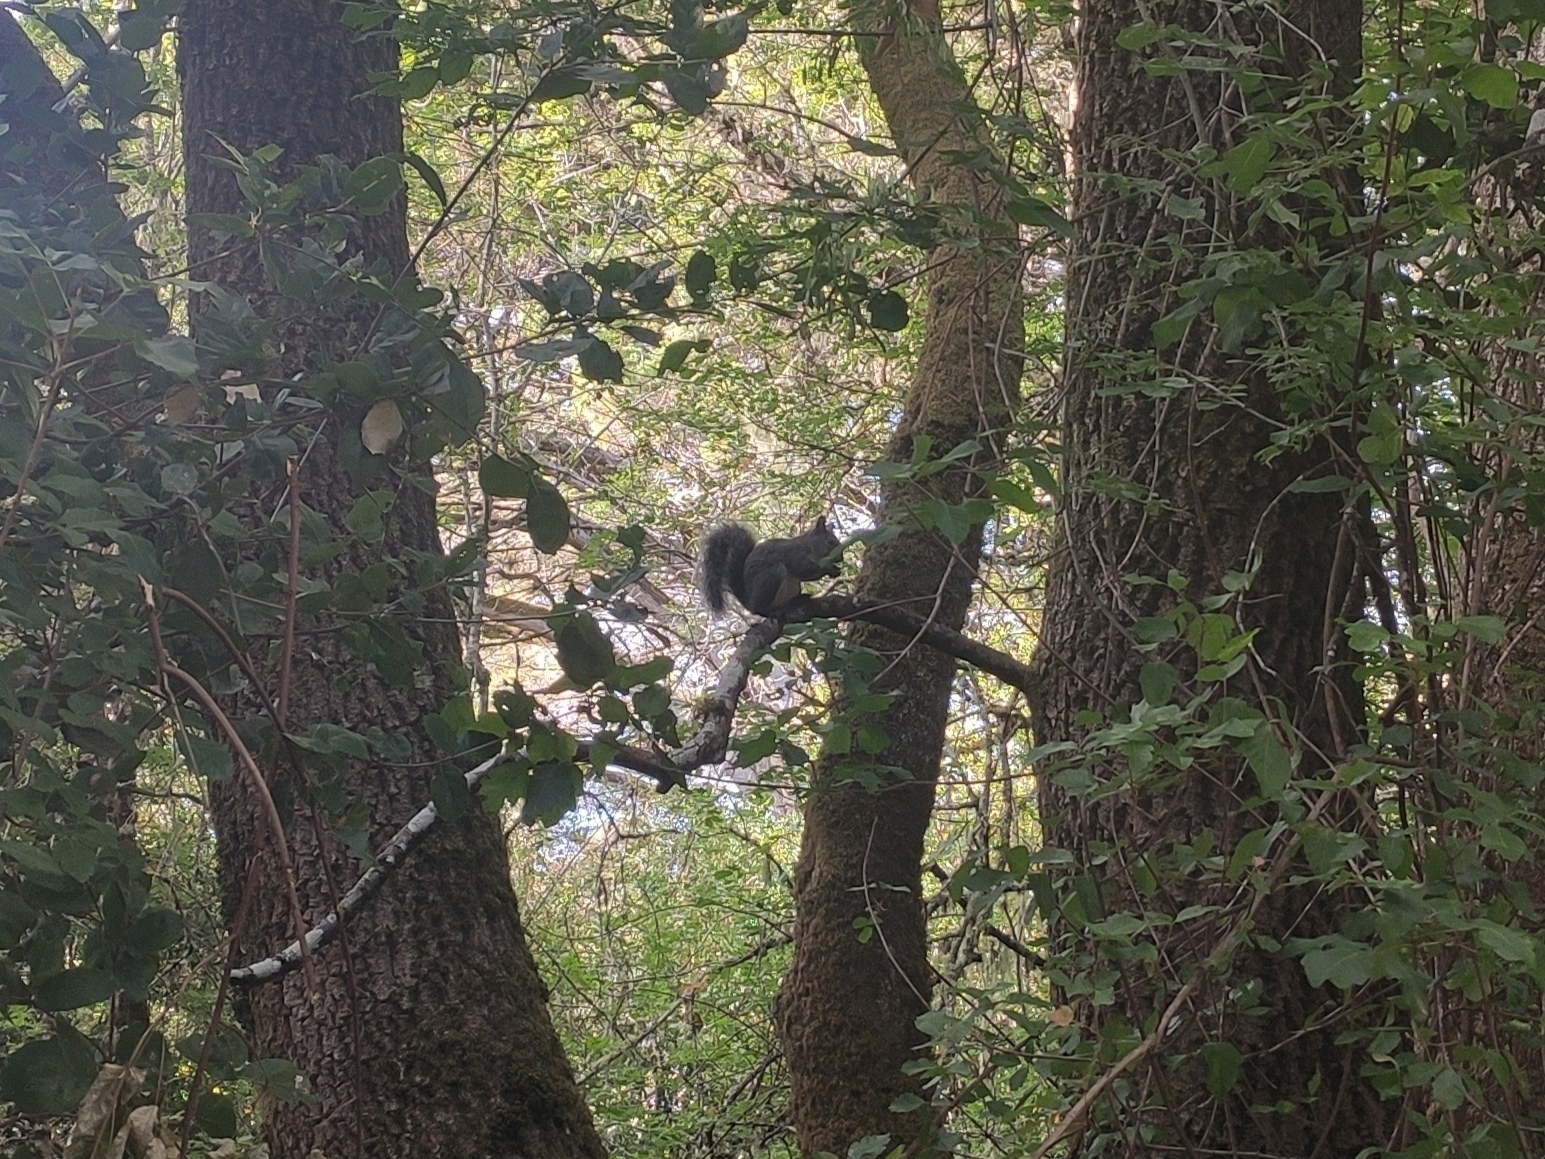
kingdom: Animalia
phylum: Chordata
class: Mammalia
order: Rodentia
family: Sciuridae
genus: Sciurus
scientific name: Sciurus griseus
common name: Western gray squirrel
